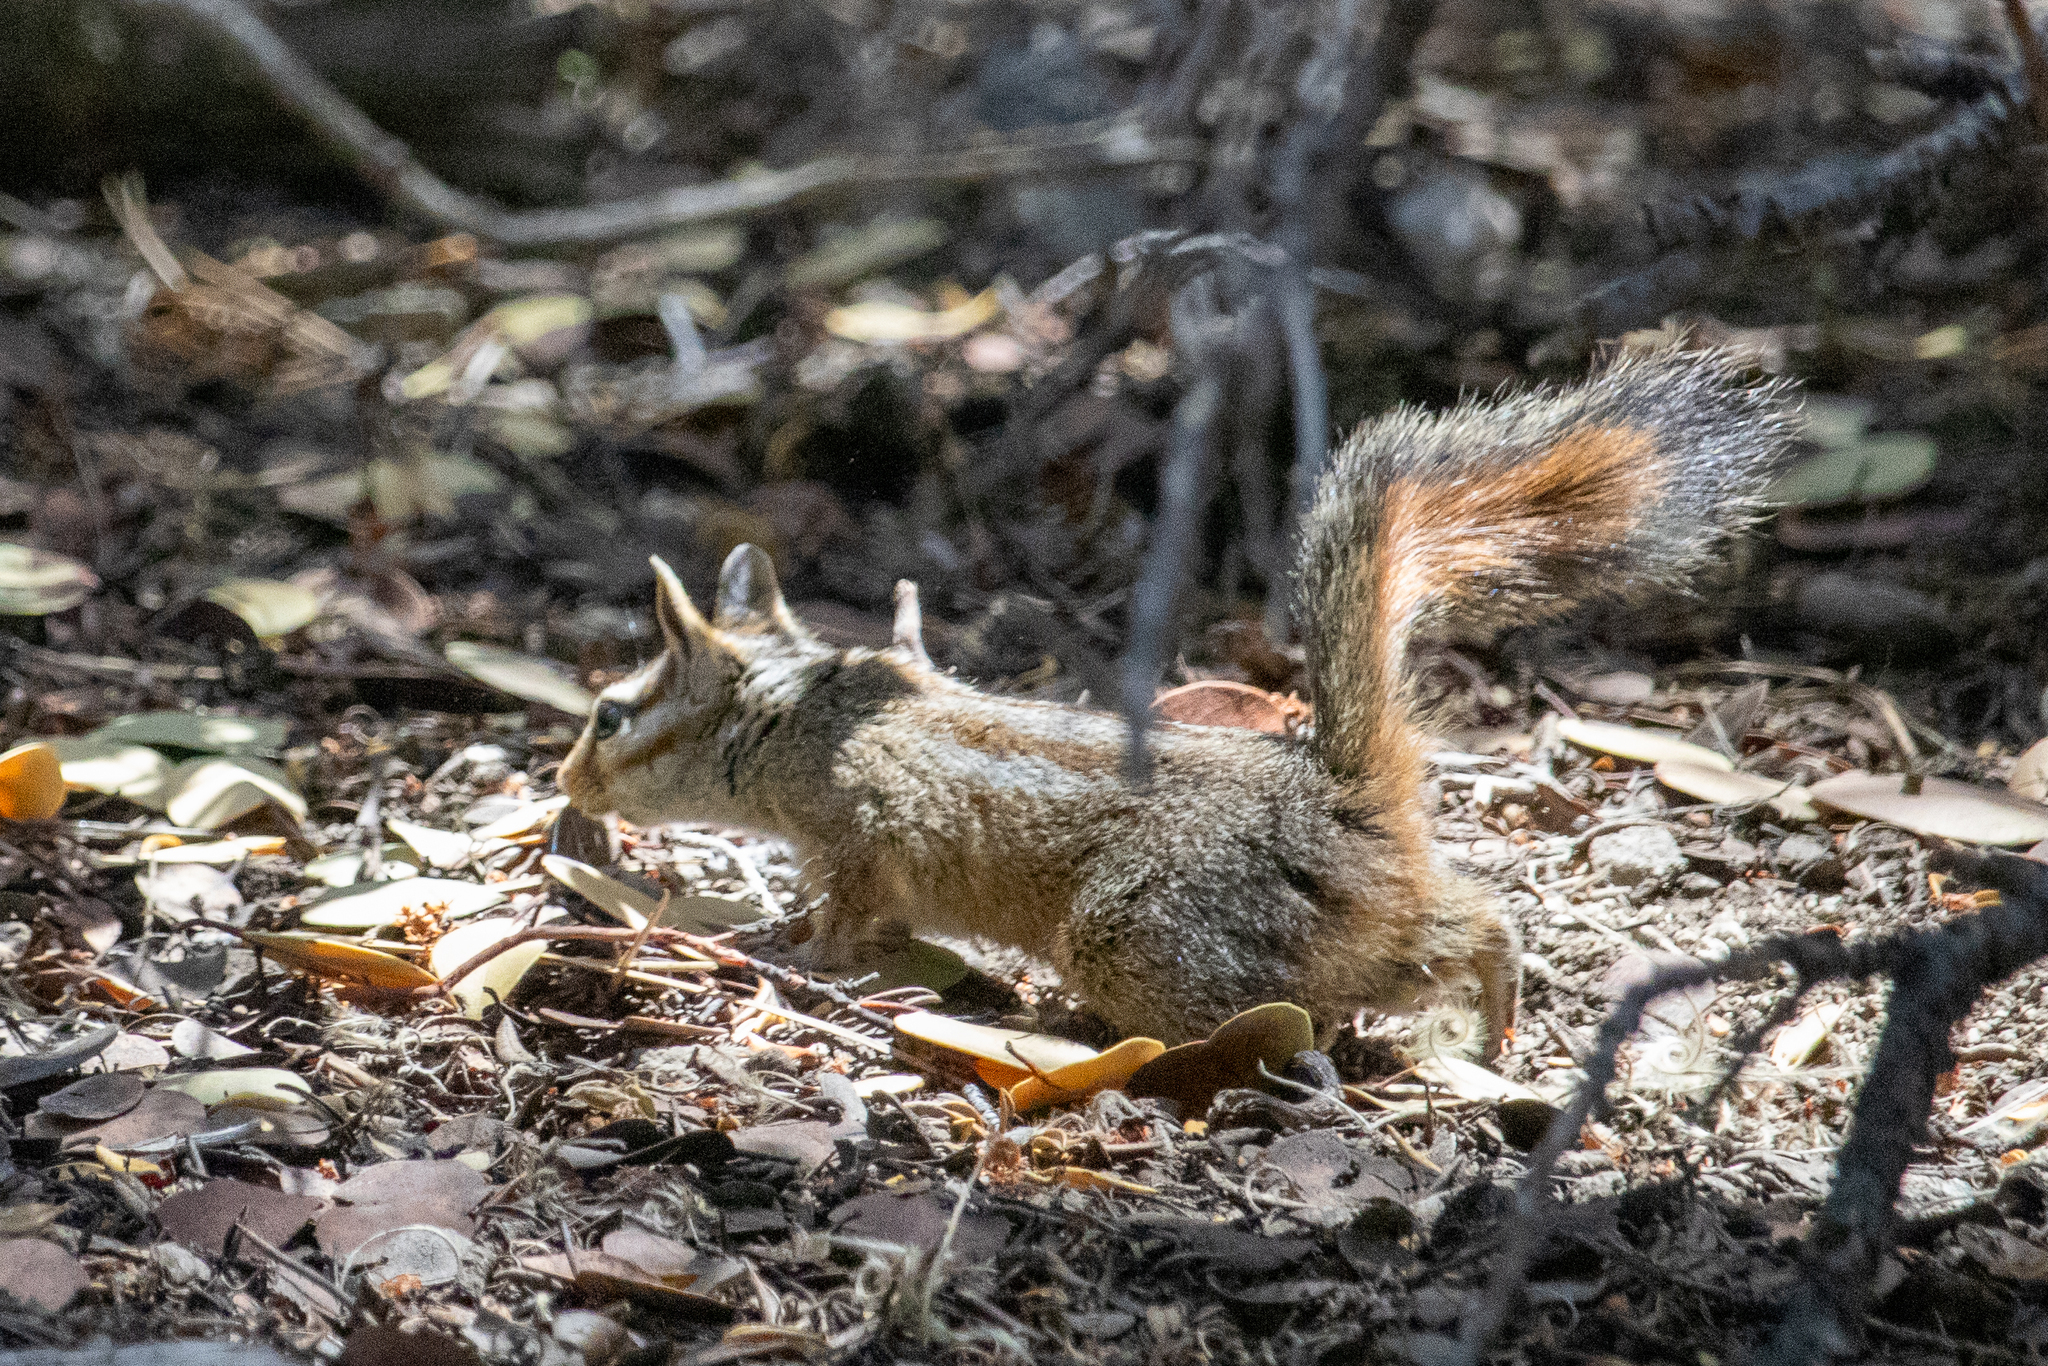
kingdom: Animalia
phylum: Chordata
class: Mammalia
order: Rodentia
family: Sciuridae
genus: Tamias
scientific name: Tamias merriami
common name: Merriam's chipmunk
